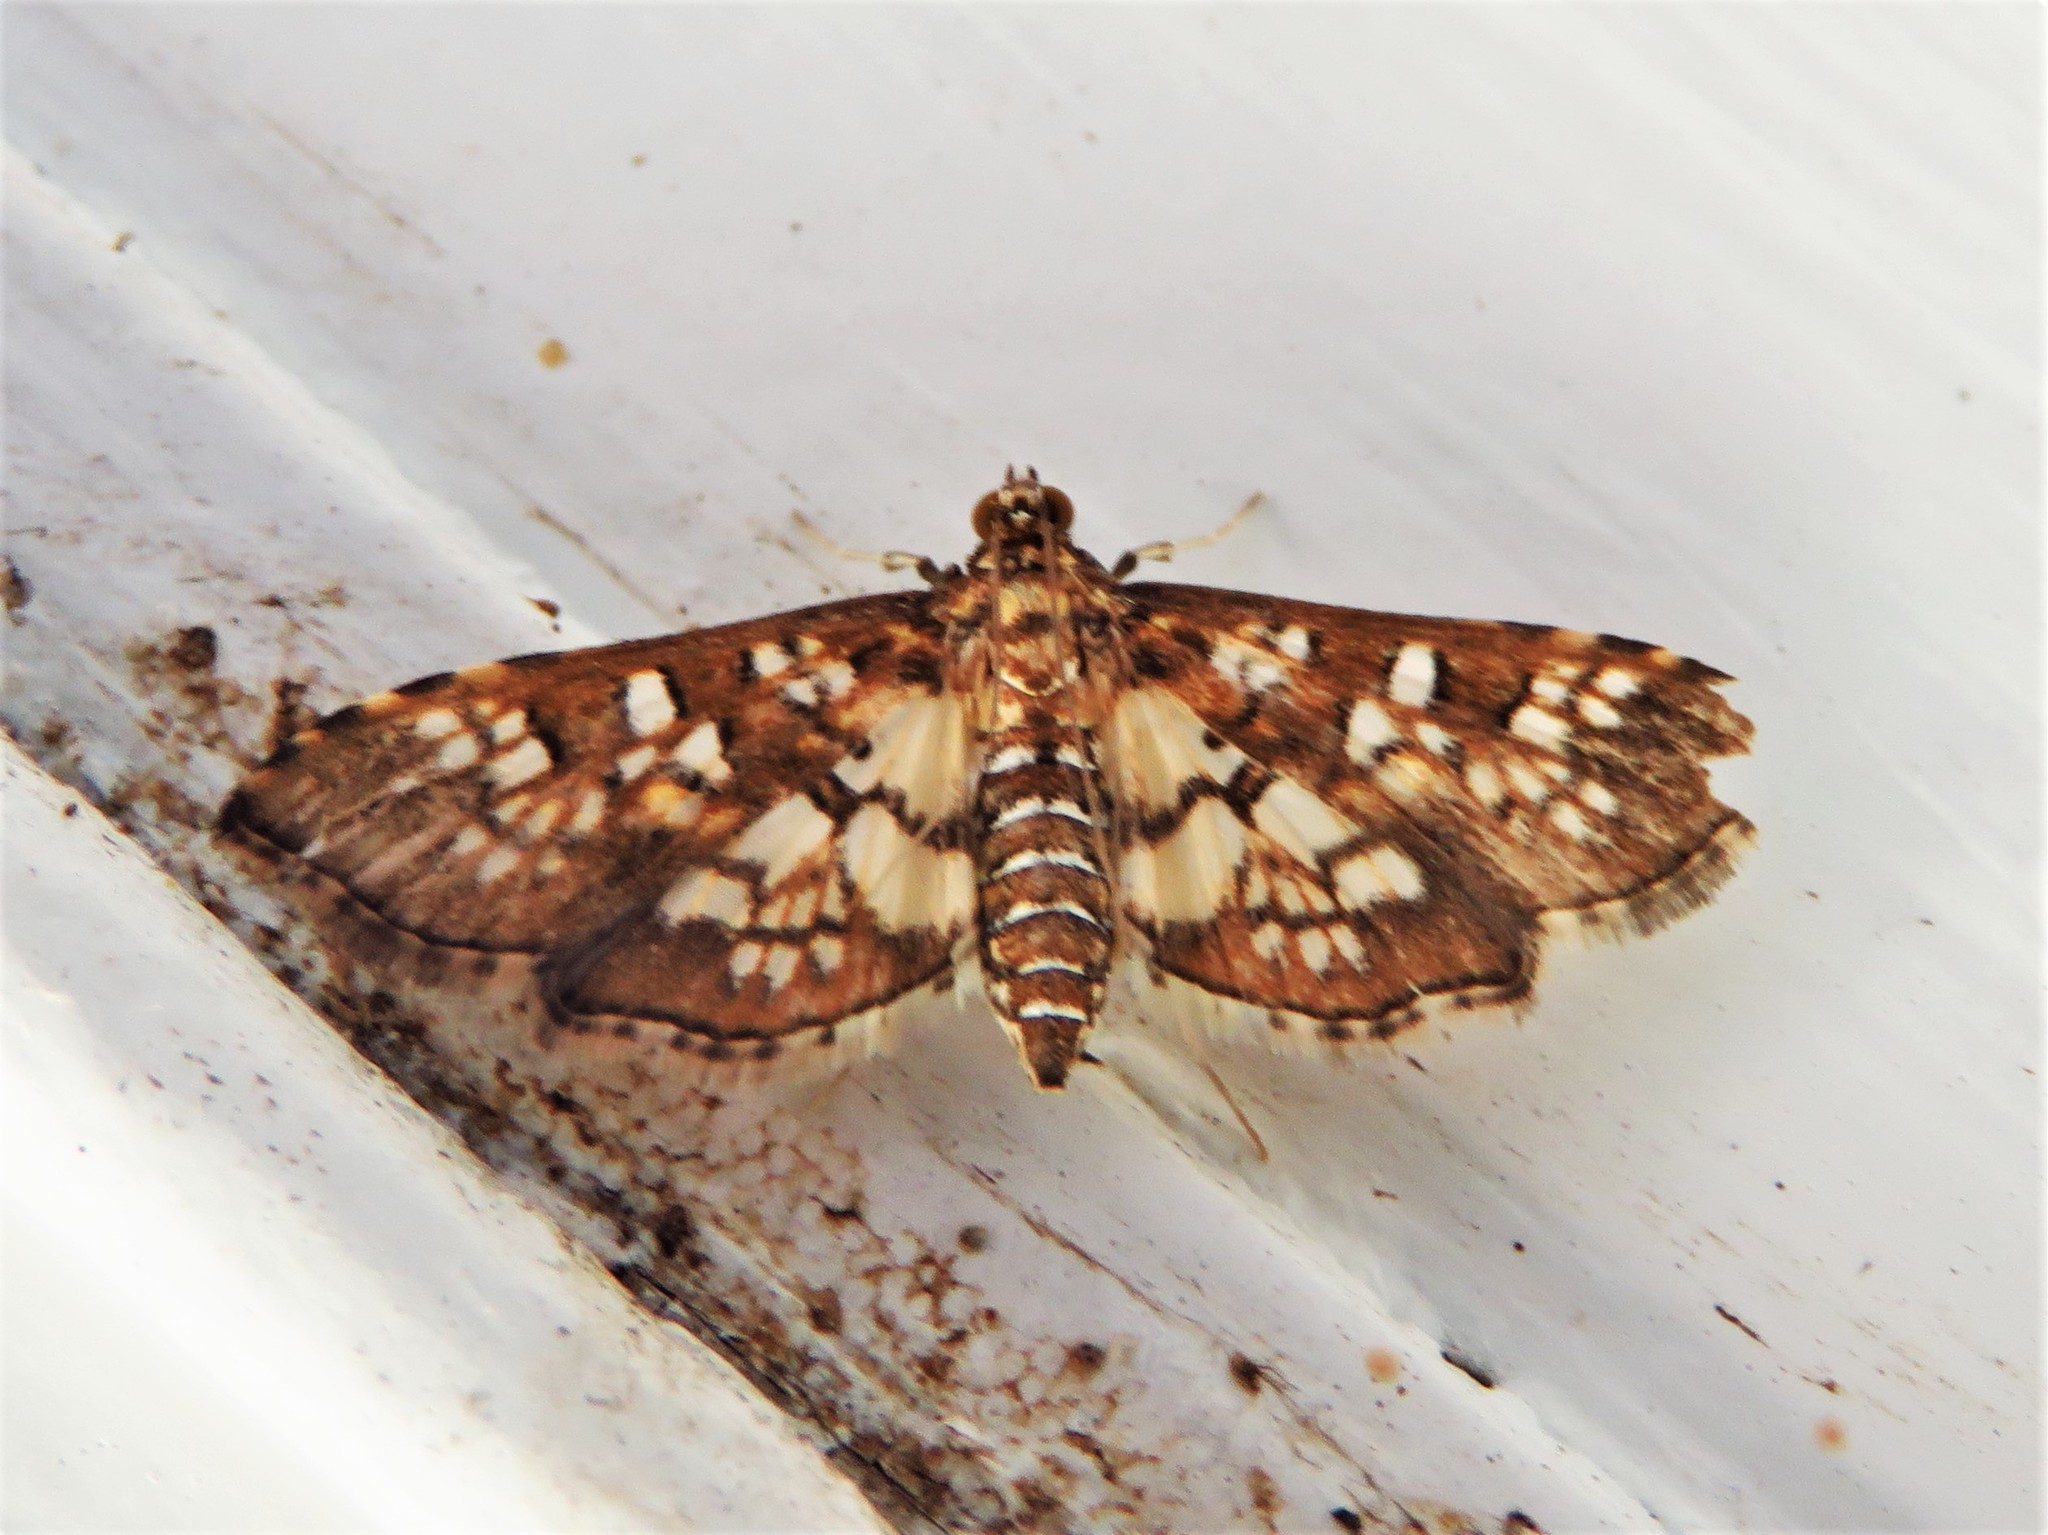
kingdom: Animalia
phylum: Arthropoda
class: Insecta
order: Lepidoptera
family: Crambidae
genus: Samea
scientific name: Samea ecclesialis
